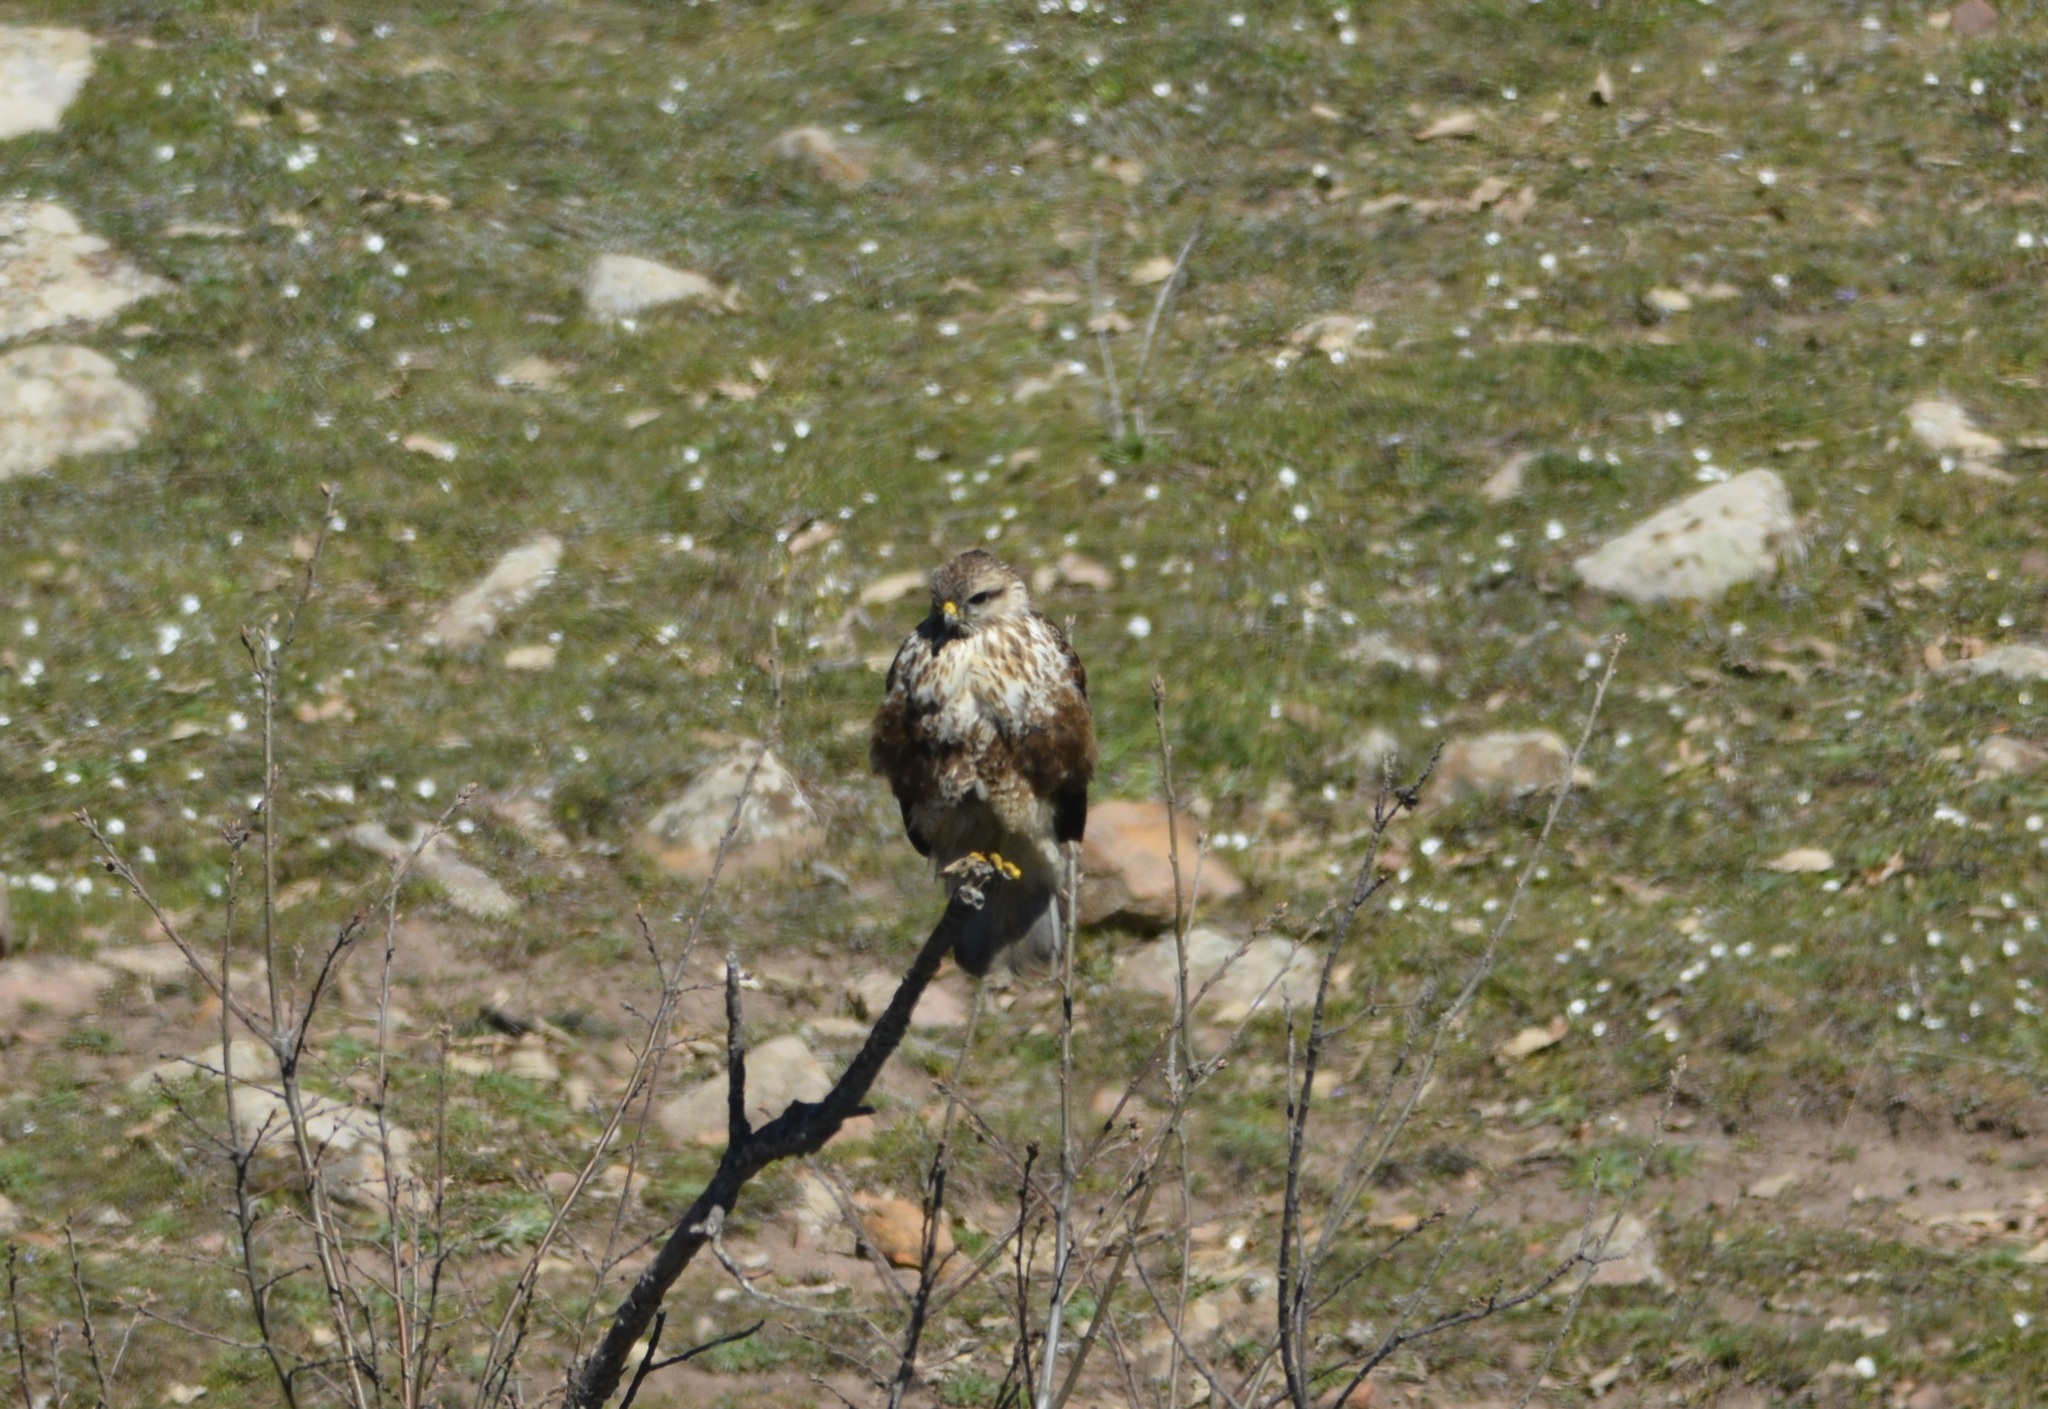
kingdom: Animalia
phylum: Chordata
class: Aves
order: Accipitriformes
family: Accipitridae
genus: Buteo
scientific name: Buteo rufinus
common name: Long-legged buzzard
